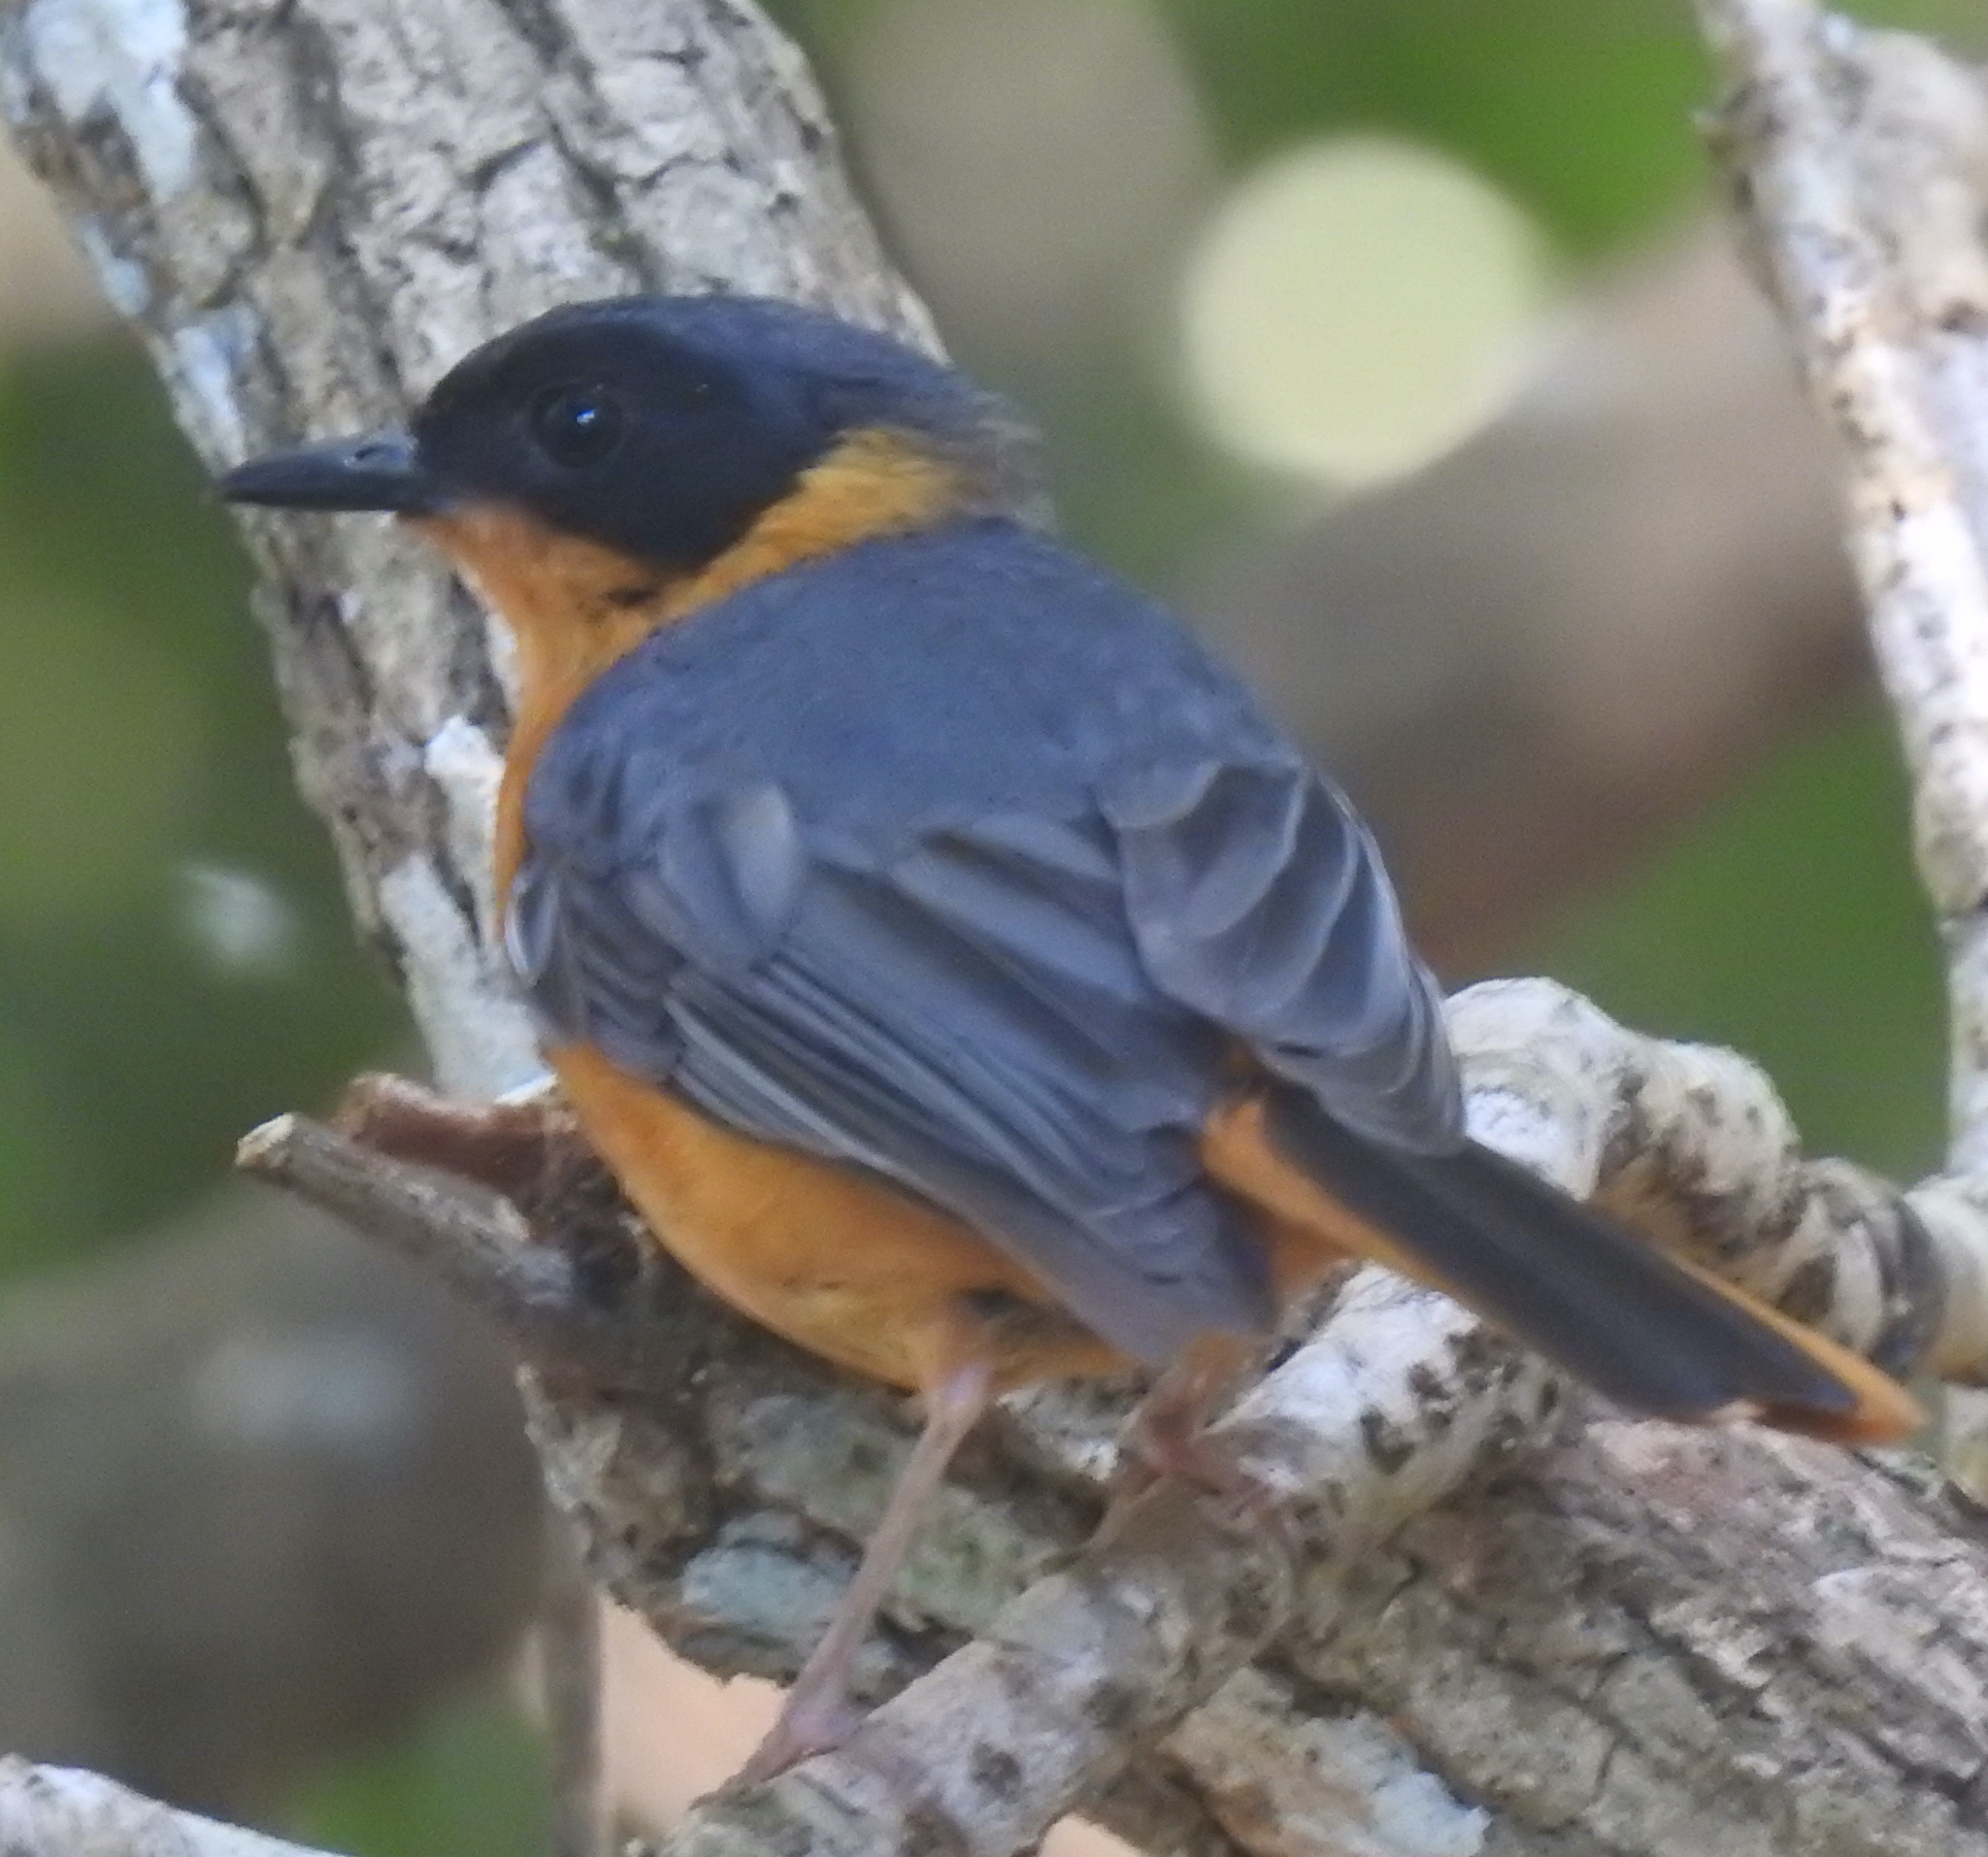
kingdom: Animalia
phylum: Chordata
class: Aves
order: Passeriformes
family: Muscicapidae
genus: Cossypha
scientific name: Cossypha dichroa
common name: Chorister robin-chat
